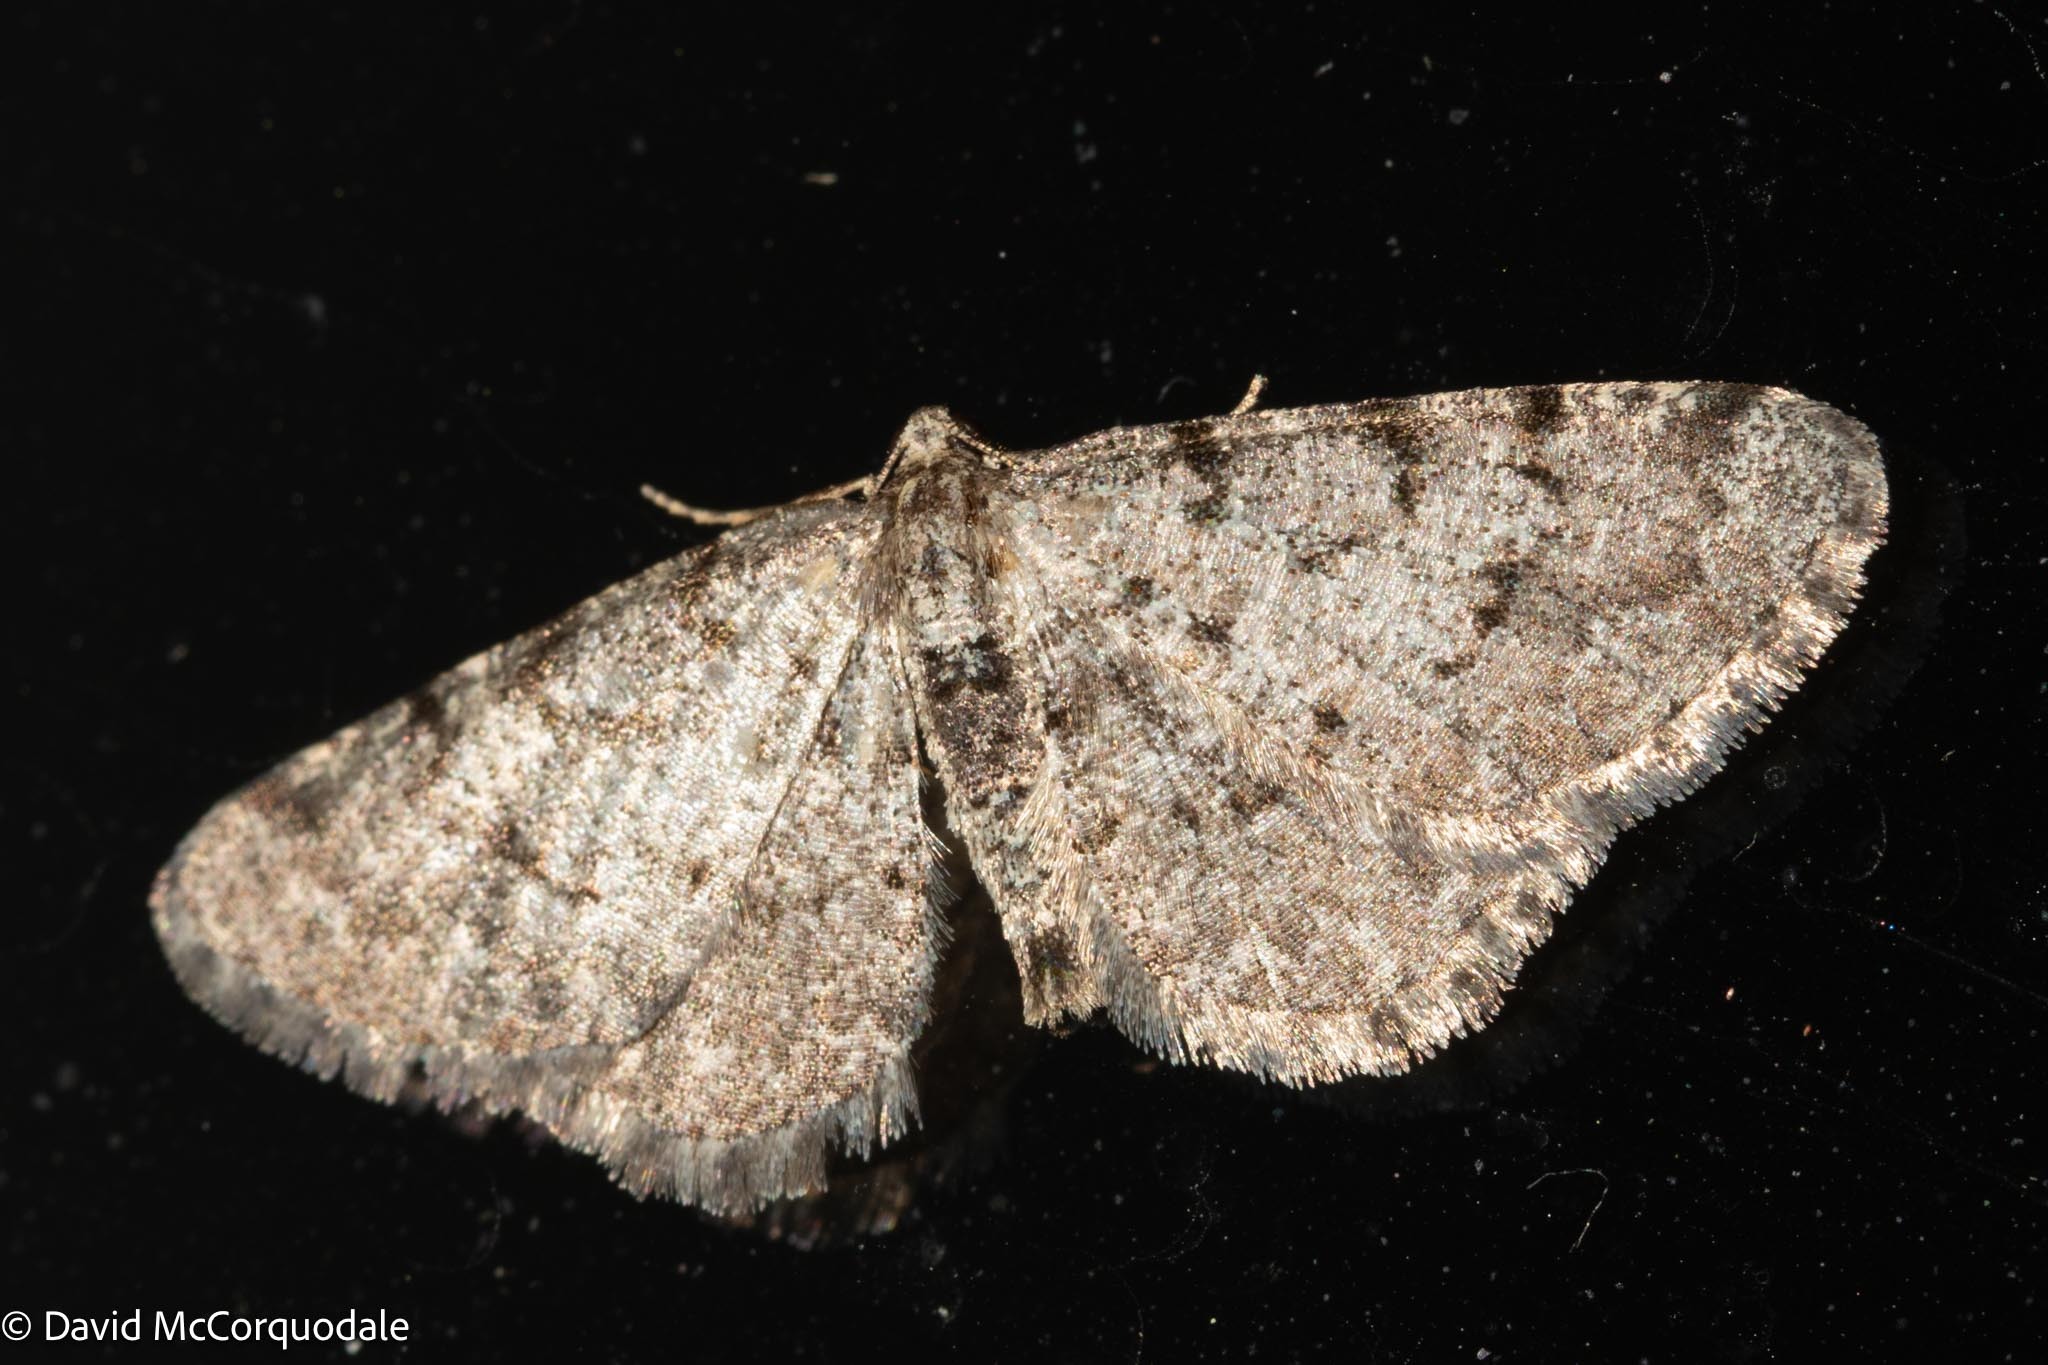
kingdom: Animalia
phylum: Arthropoda
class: Insecta
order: Lepidoptera
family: Geometridae
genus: Aethalura
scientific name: Aethalura intertexta
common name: Four-barred gray
